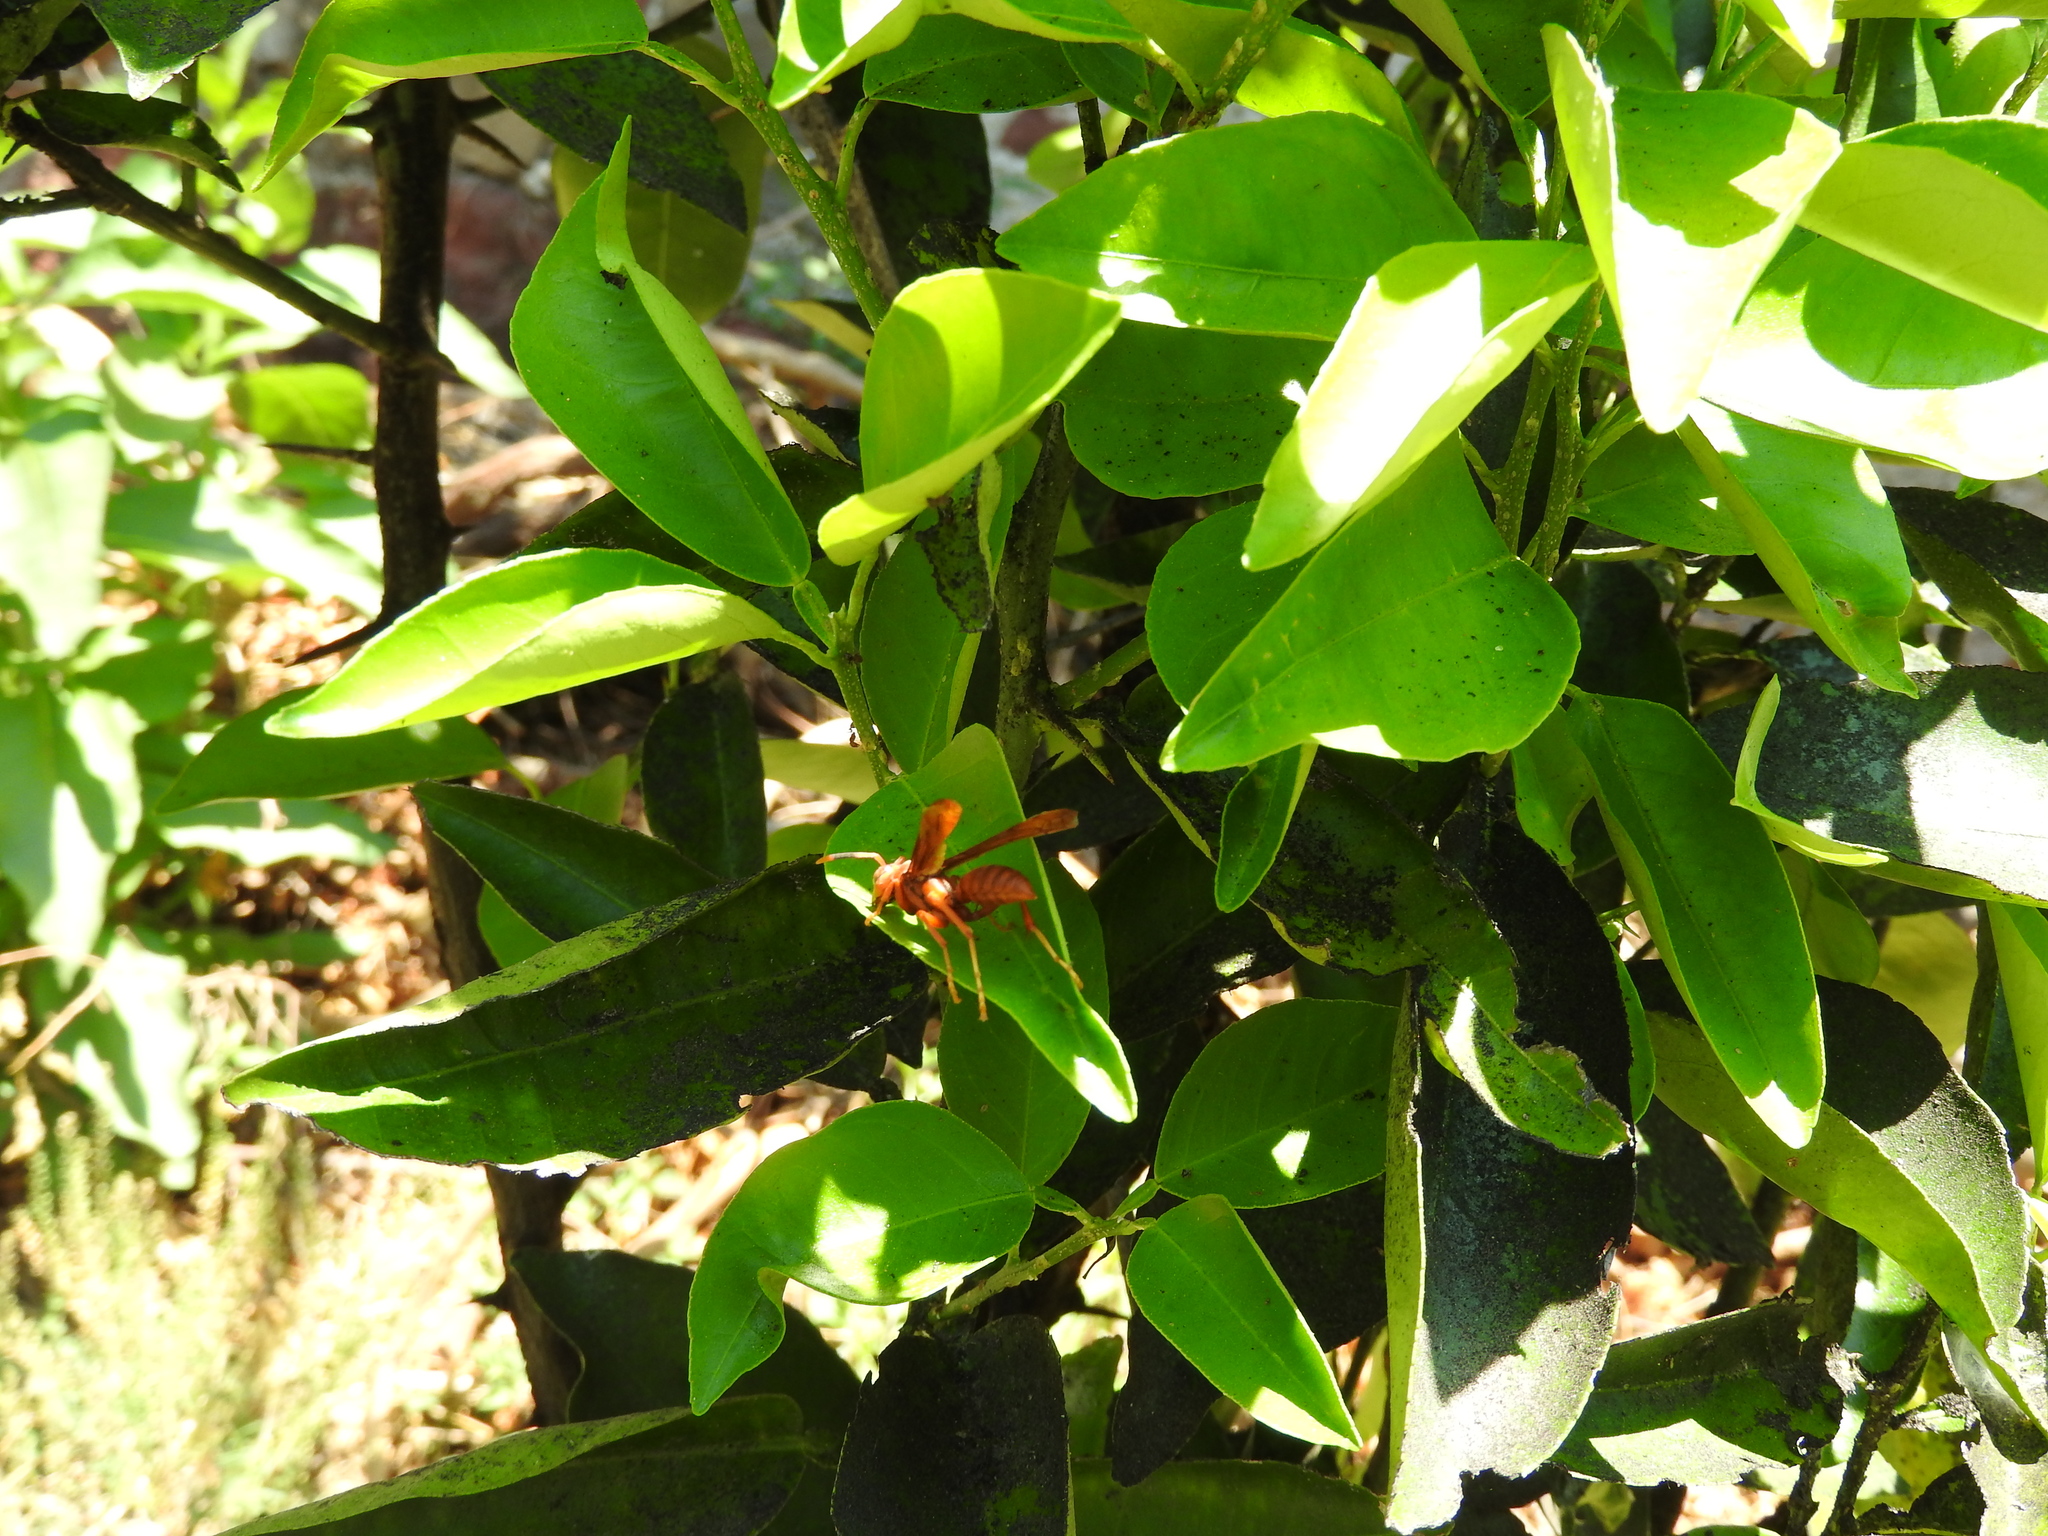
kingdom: Animalia
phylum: Arthropoda
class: Insecta
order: Hymenoptera
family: Eumenidae
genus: Polistes
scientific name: Polistes canadensis
